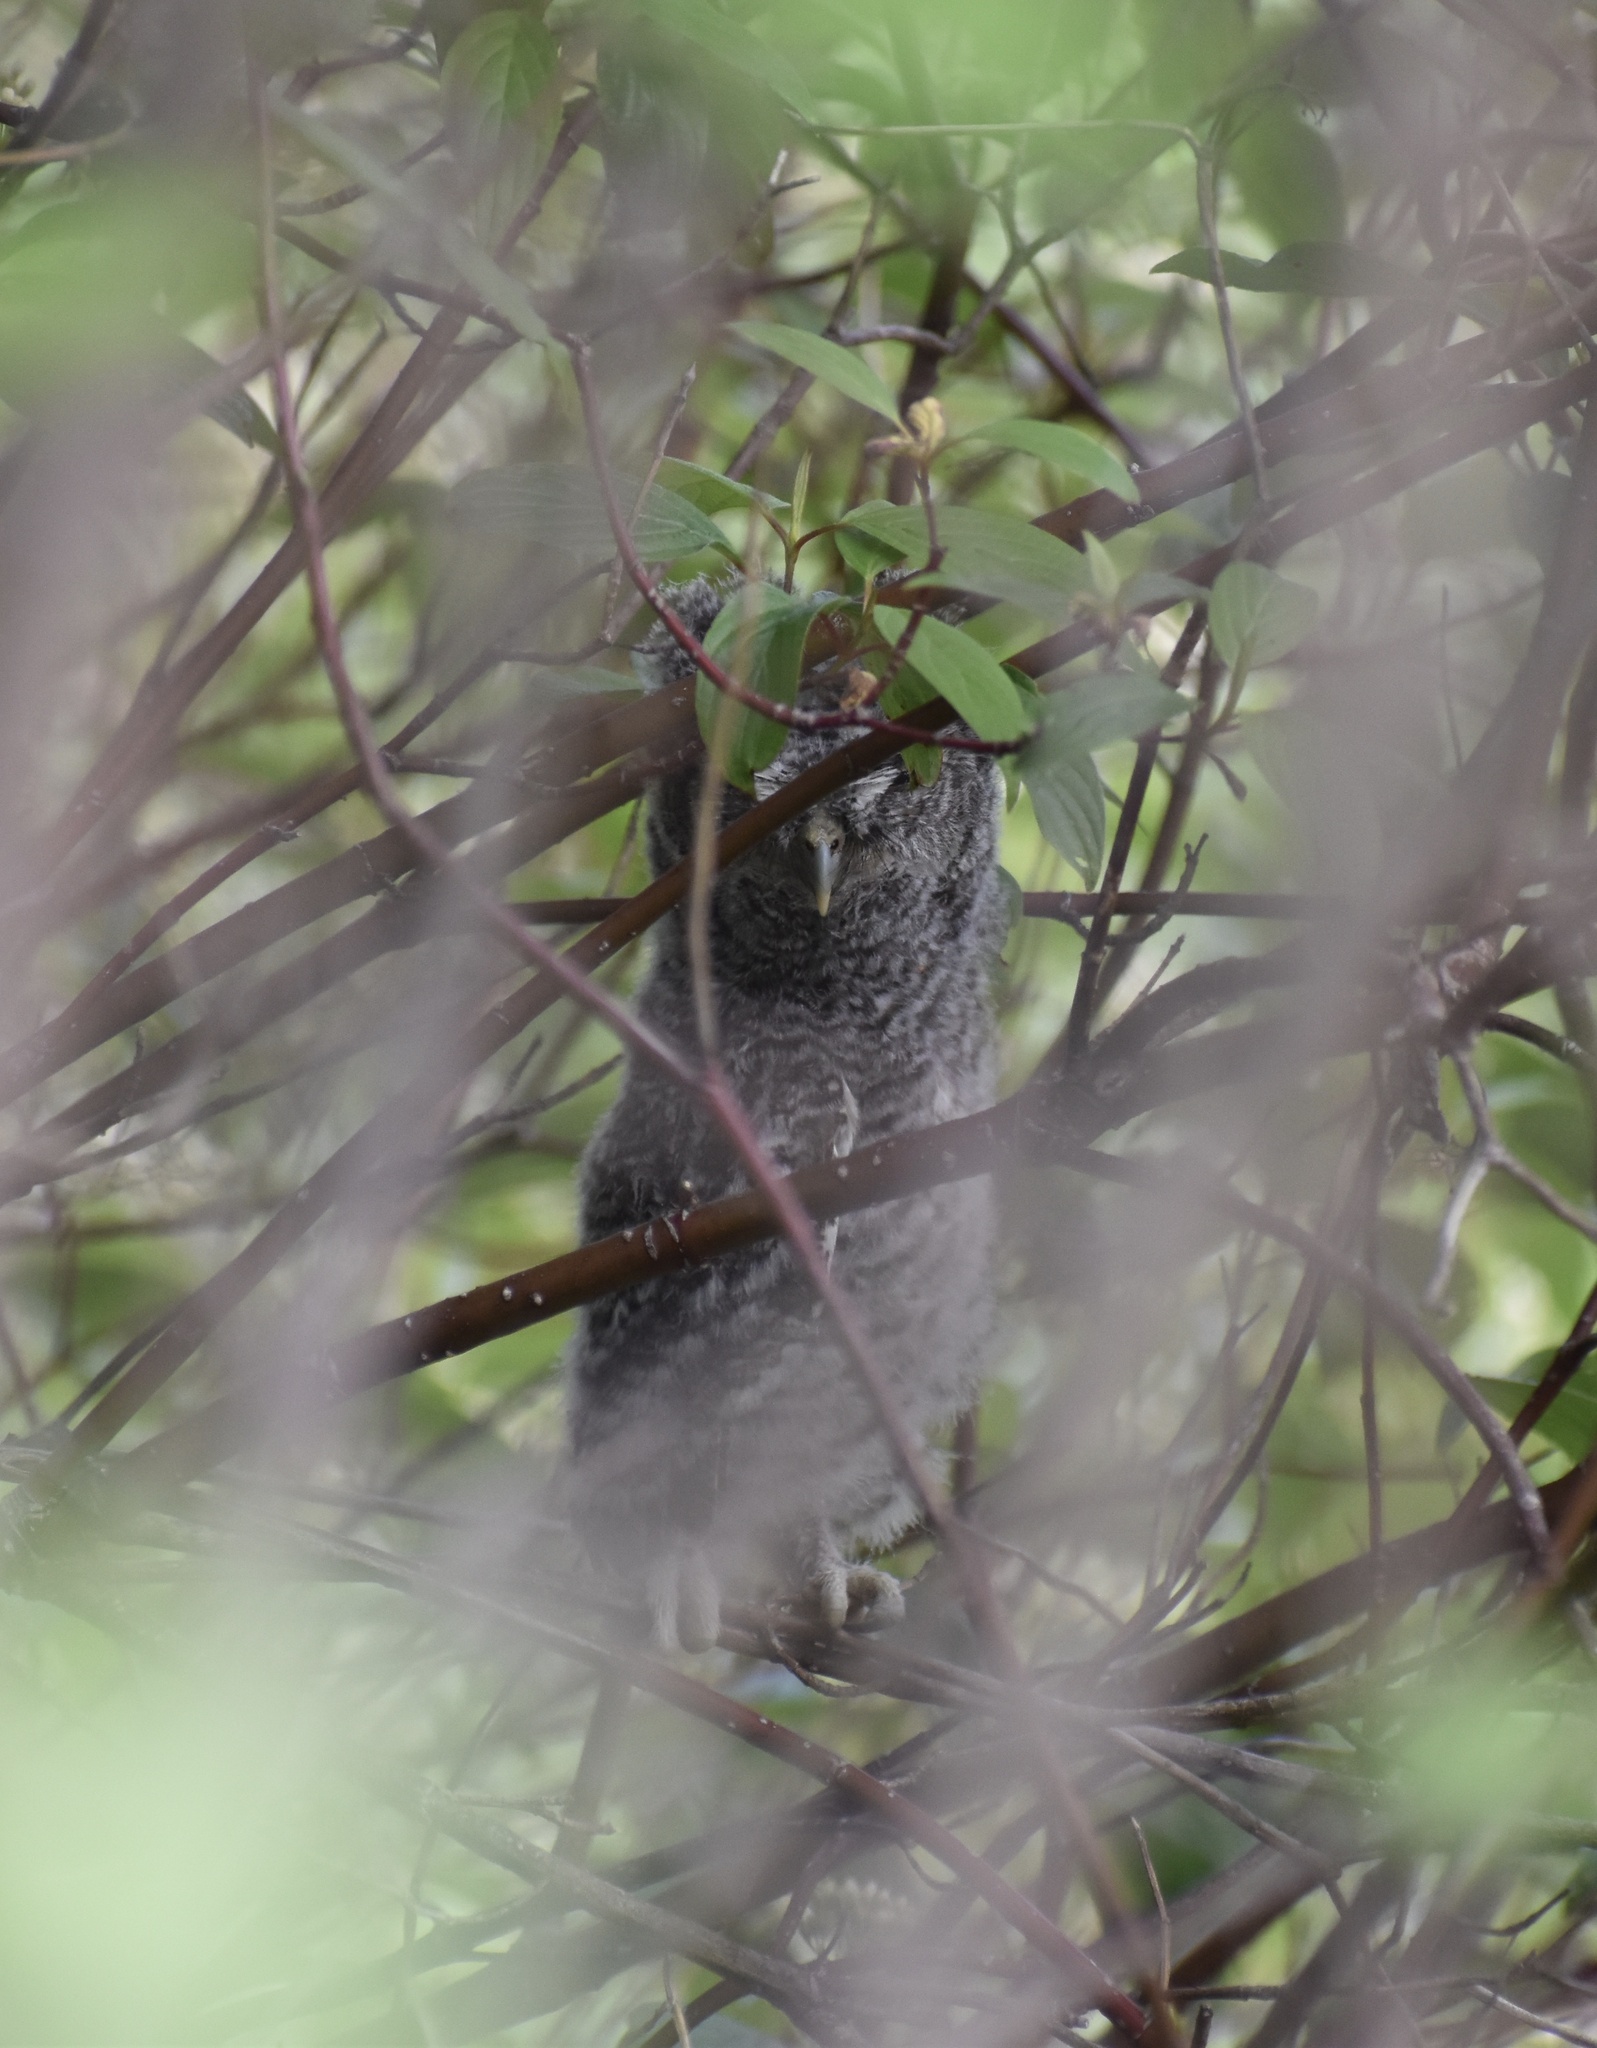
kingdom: Animalia
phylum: Chordata
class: Aves
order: Strigiformes
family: Strigidae
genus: Megascops
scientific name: Megascops asio
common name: Eastern screech-owl
